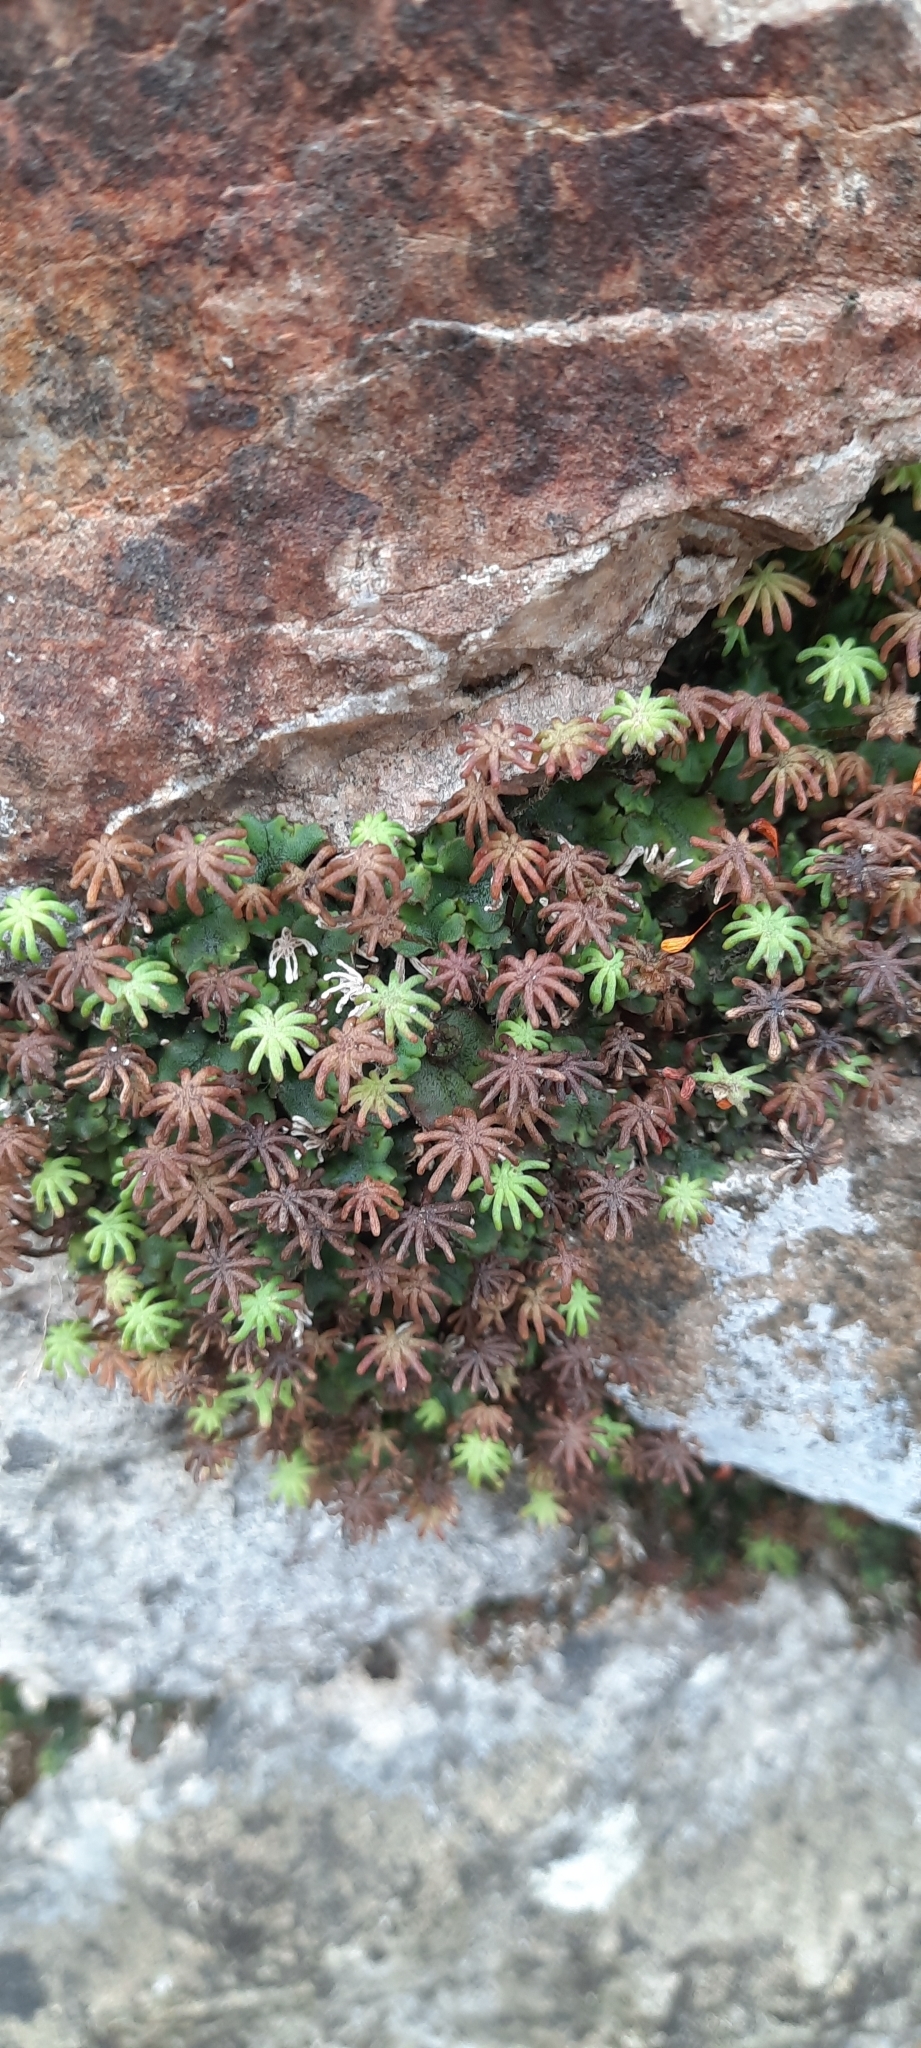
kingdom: Plantae
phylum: Marchantiophyta
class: Marchantiopsida
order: Marchantiales
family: Marchantiaceae
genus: Marchantia
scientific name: Marchantia polymorpha
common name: Common liverwort
